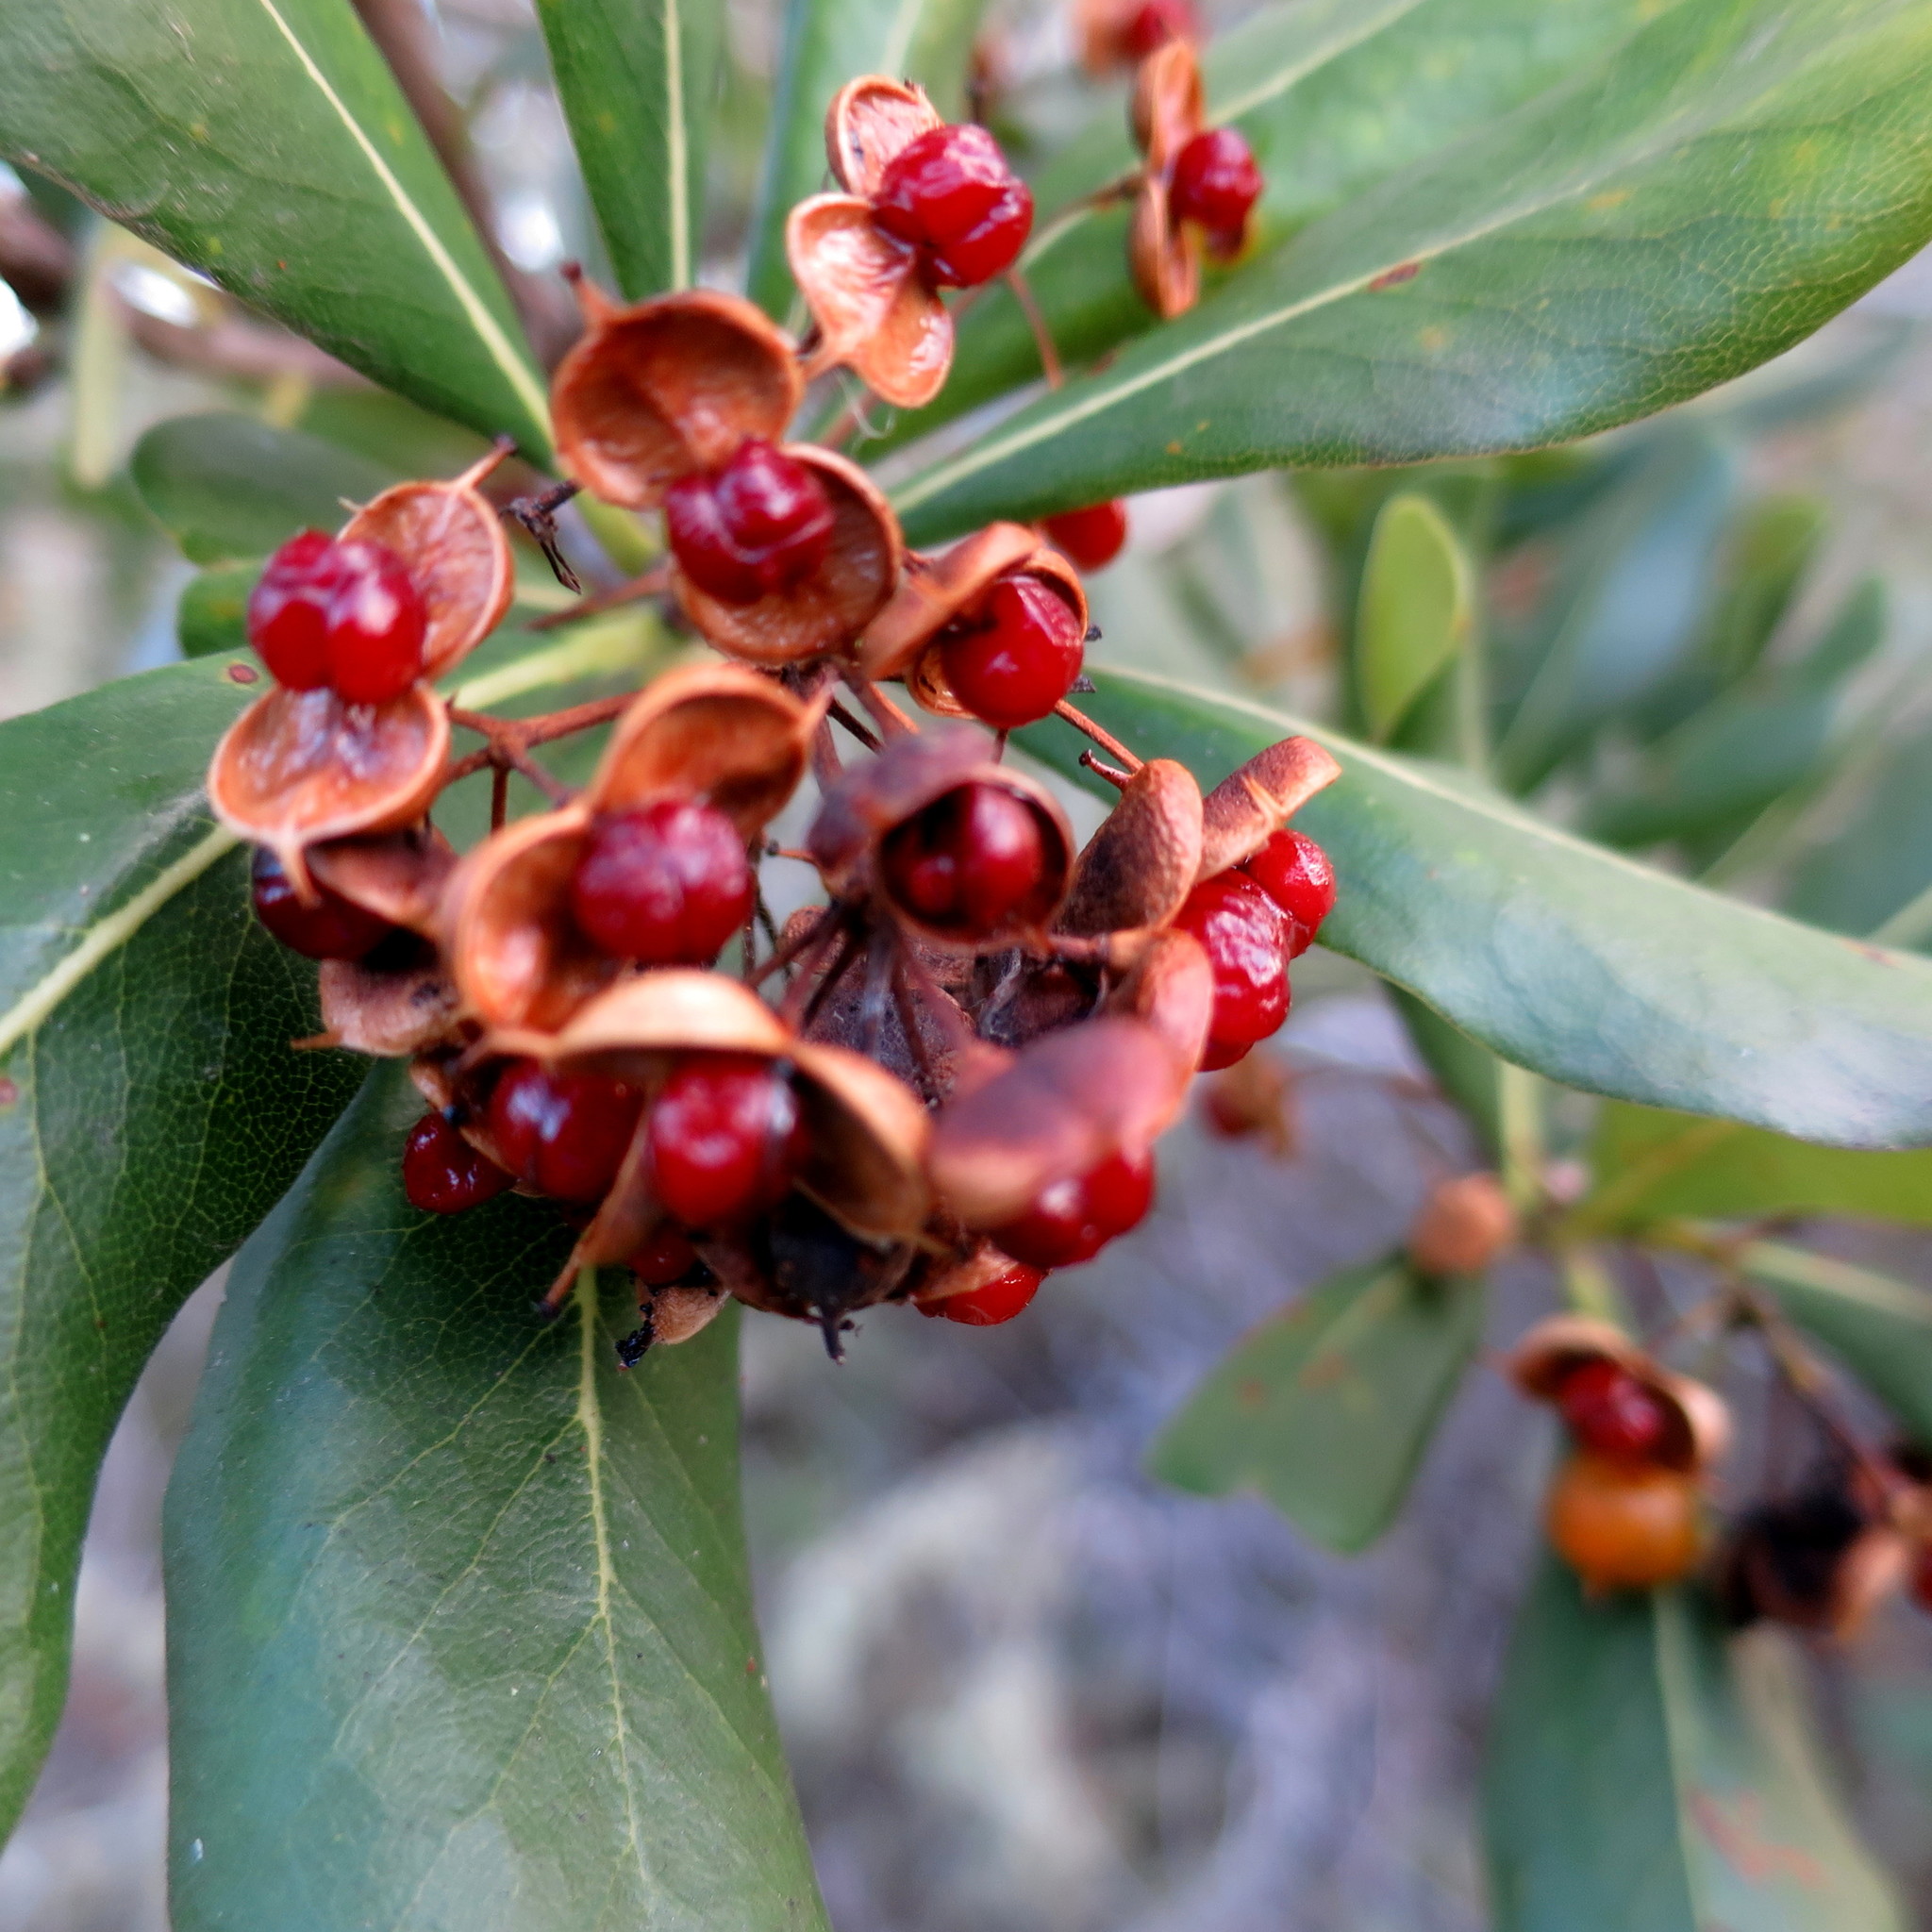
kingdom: Plantae
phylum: Tracheophyta
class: Magnoliopsida
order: Apiales
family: Pittosporaceae
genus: Pittosporum
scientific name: Pittosporum viridiflorum
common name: Cape cheesewood
